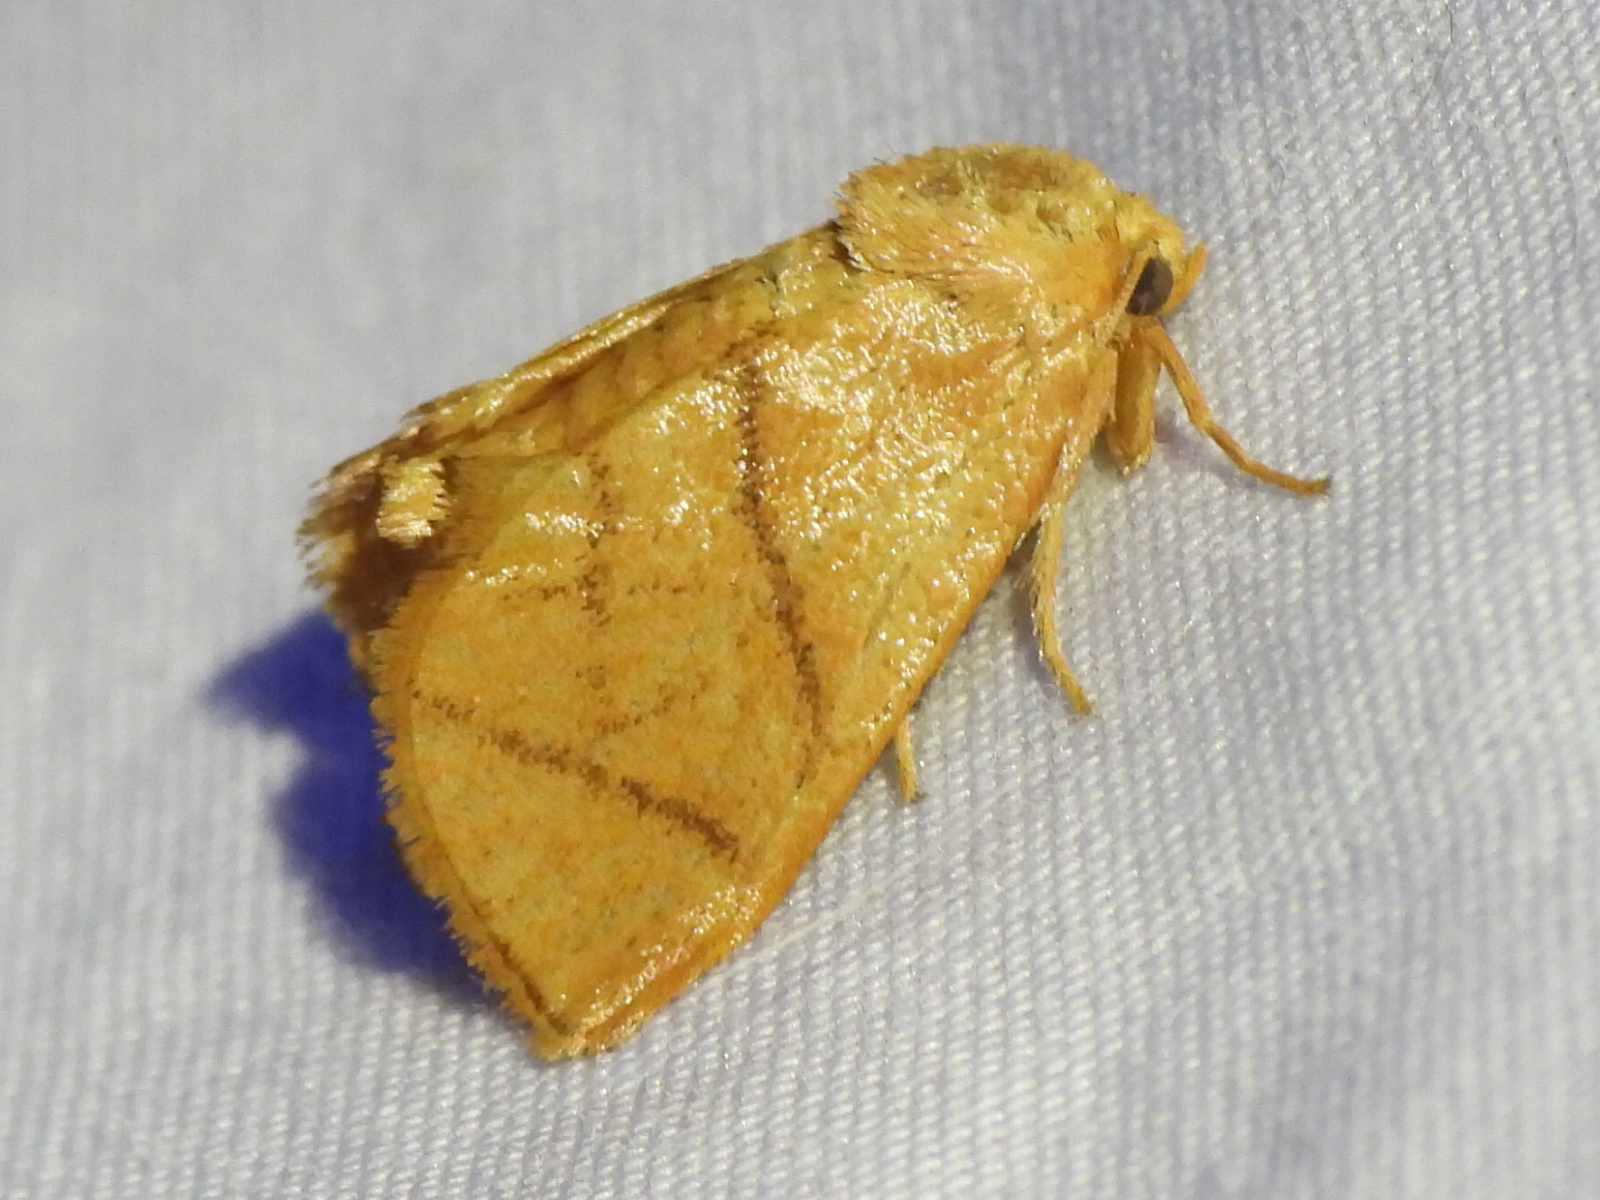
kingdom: Animalia
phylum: Arthropoda
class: Insecta
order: Lepidoptera
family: Limacodidae
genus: Apoda
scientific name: Apoda y-inversa
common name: Yellow-collared slug moth
